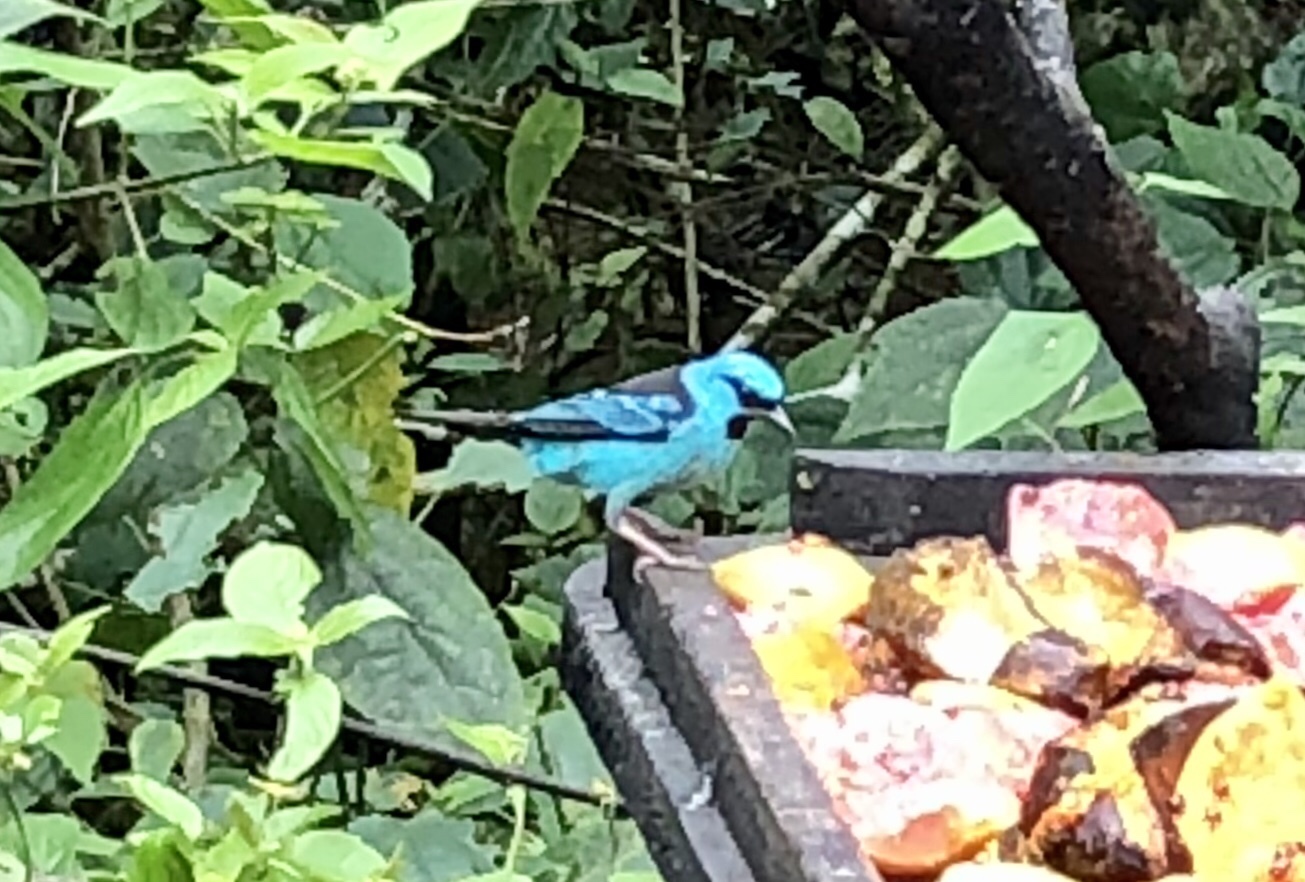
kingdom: Animalia
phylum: Chordata
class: Aves
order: Passeriformes
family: Thraupidae
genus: Dacnis
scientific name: Dacnis cayana
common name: Blue dacnis
